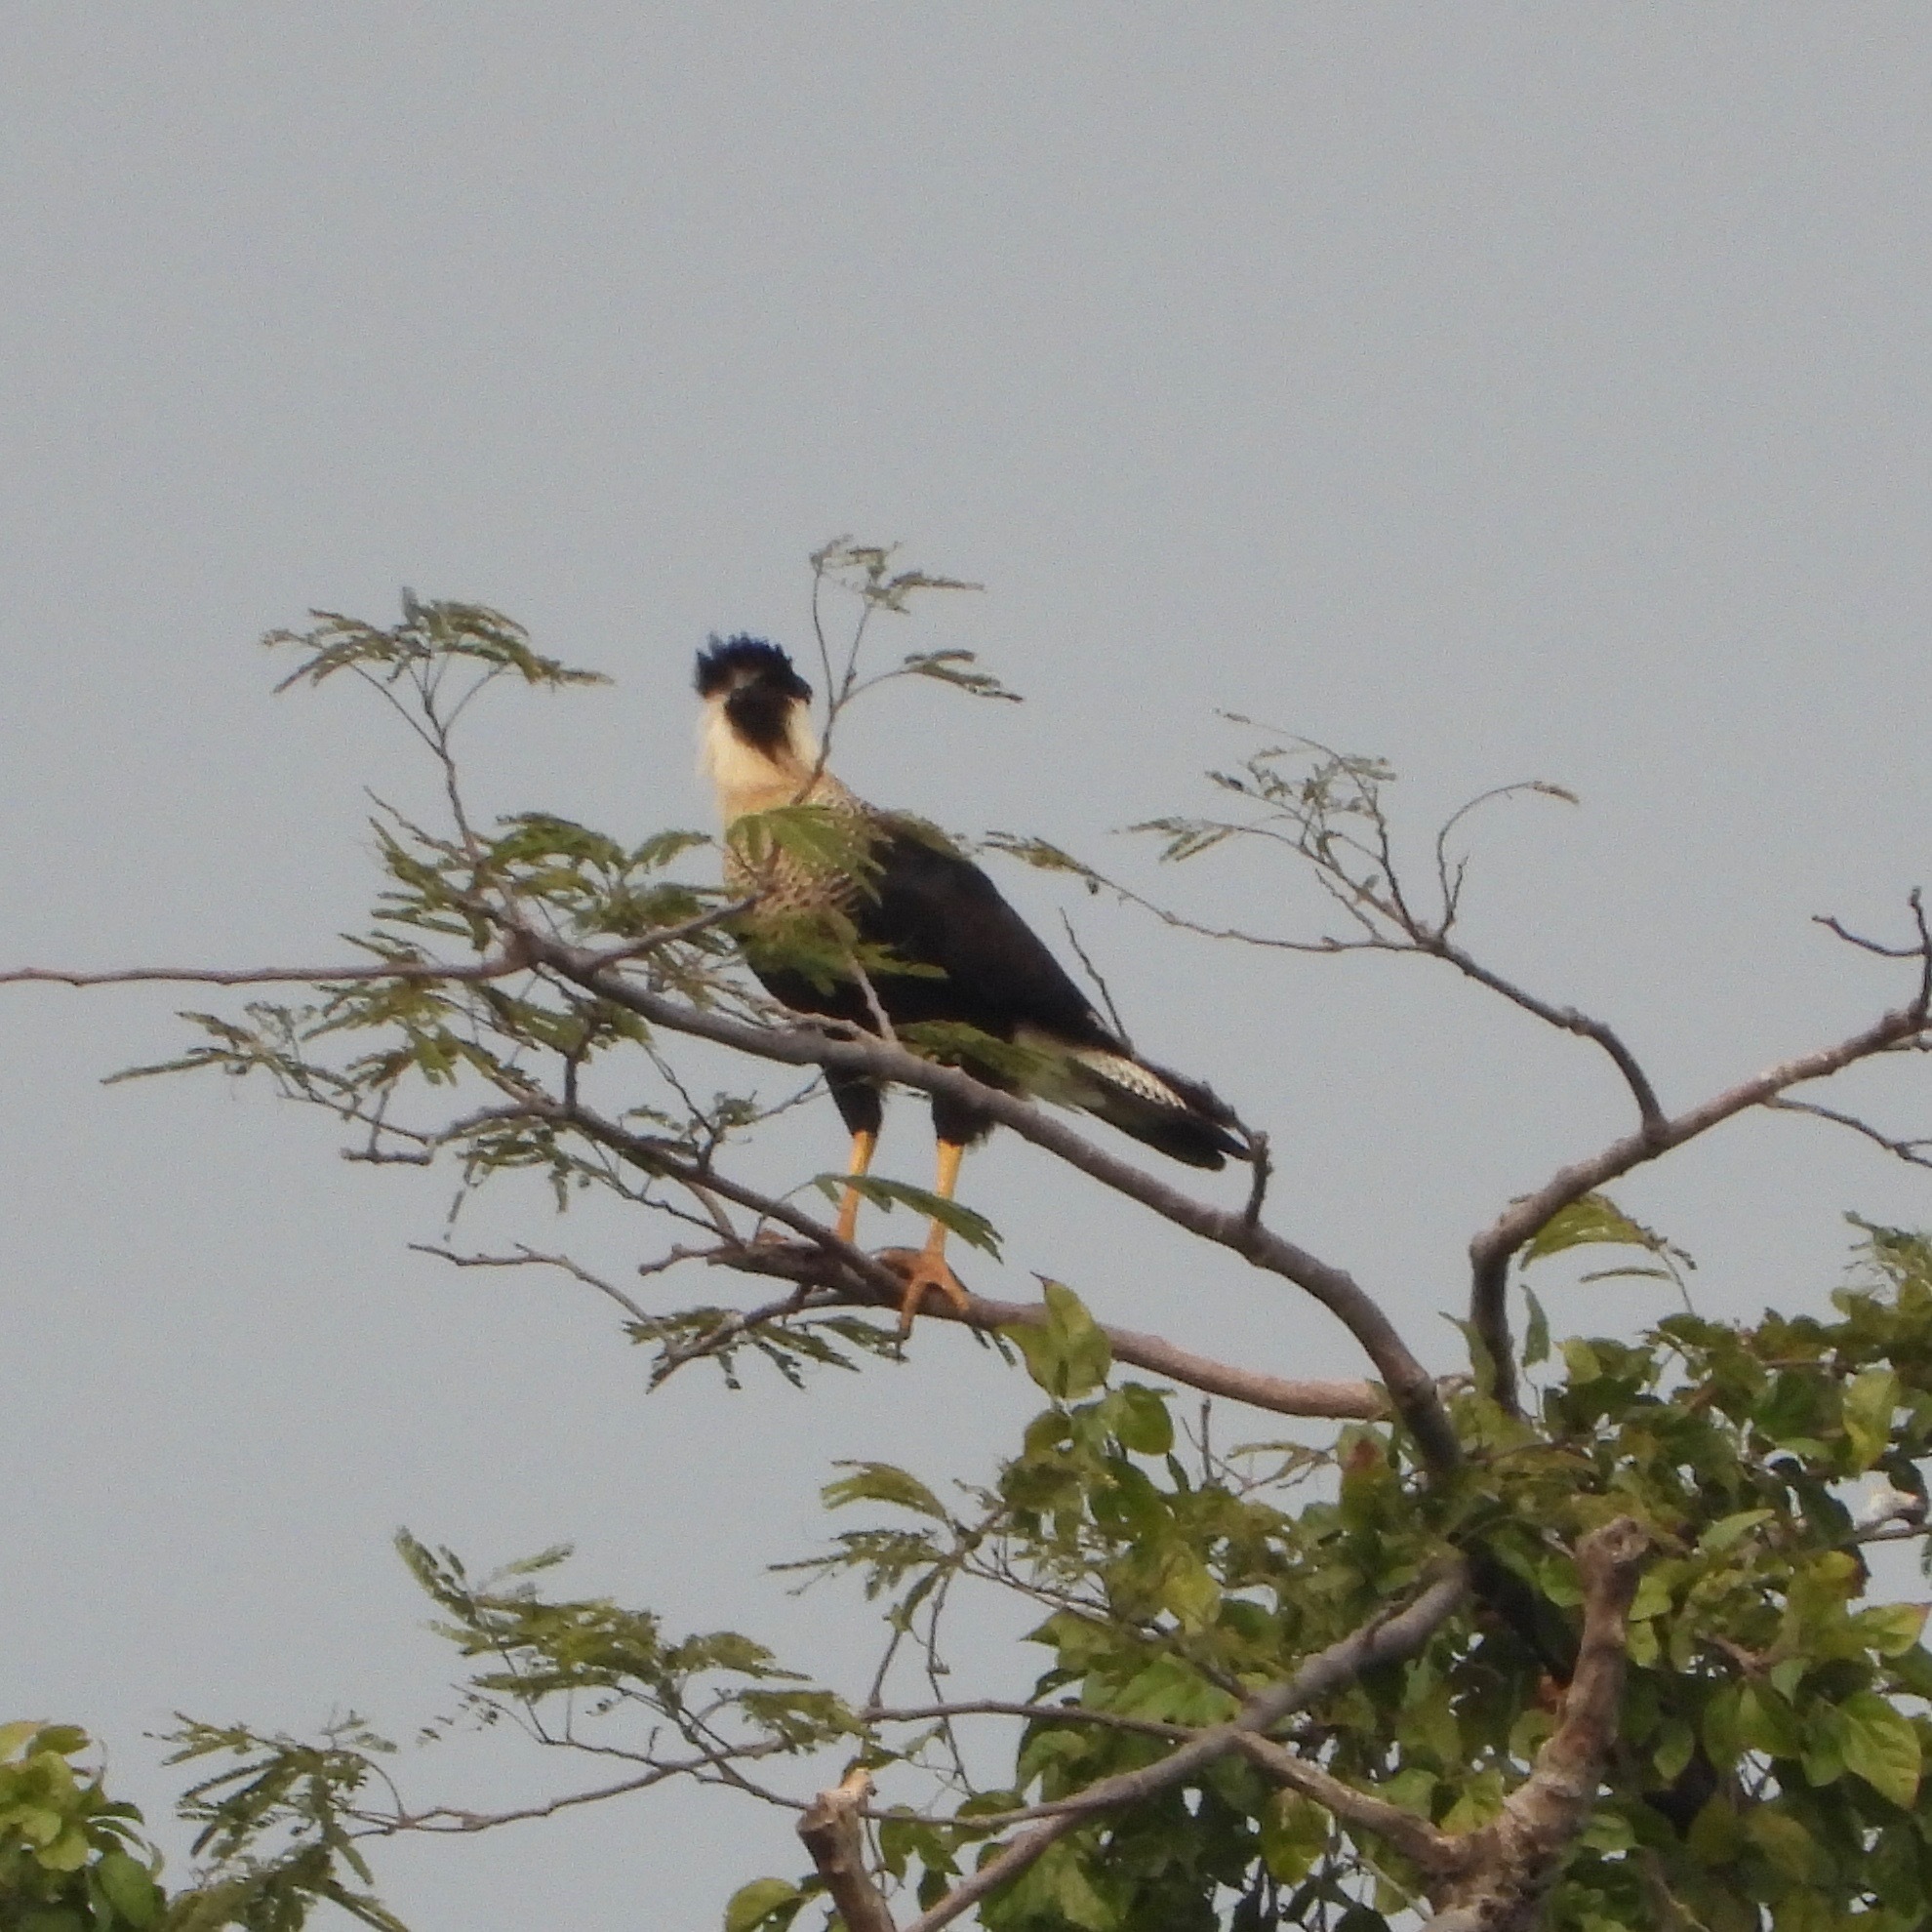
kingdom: Animalia
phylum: Chordata
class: Aves
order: Falconiformes
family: Falconidae
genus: Caracara
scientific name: Caracara plancus
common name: Southern caracara
